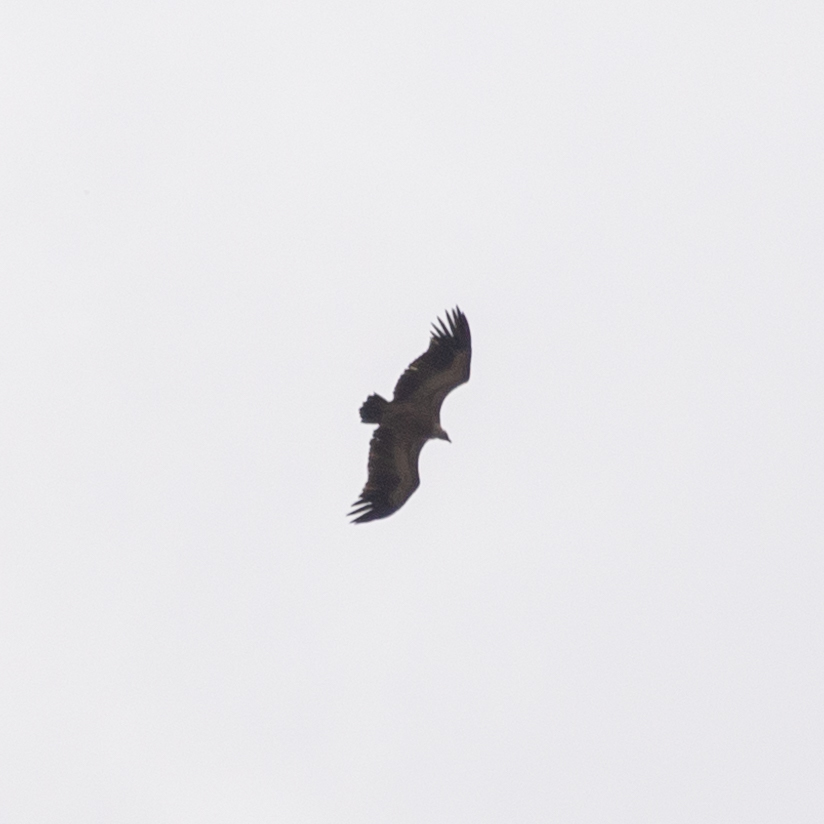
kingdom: Animalia
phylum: Chordata
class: Aves
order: Accipitriformes
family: Accipitridae
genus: Gyps
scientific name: Gyps fulvus
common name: Griffon vulture
